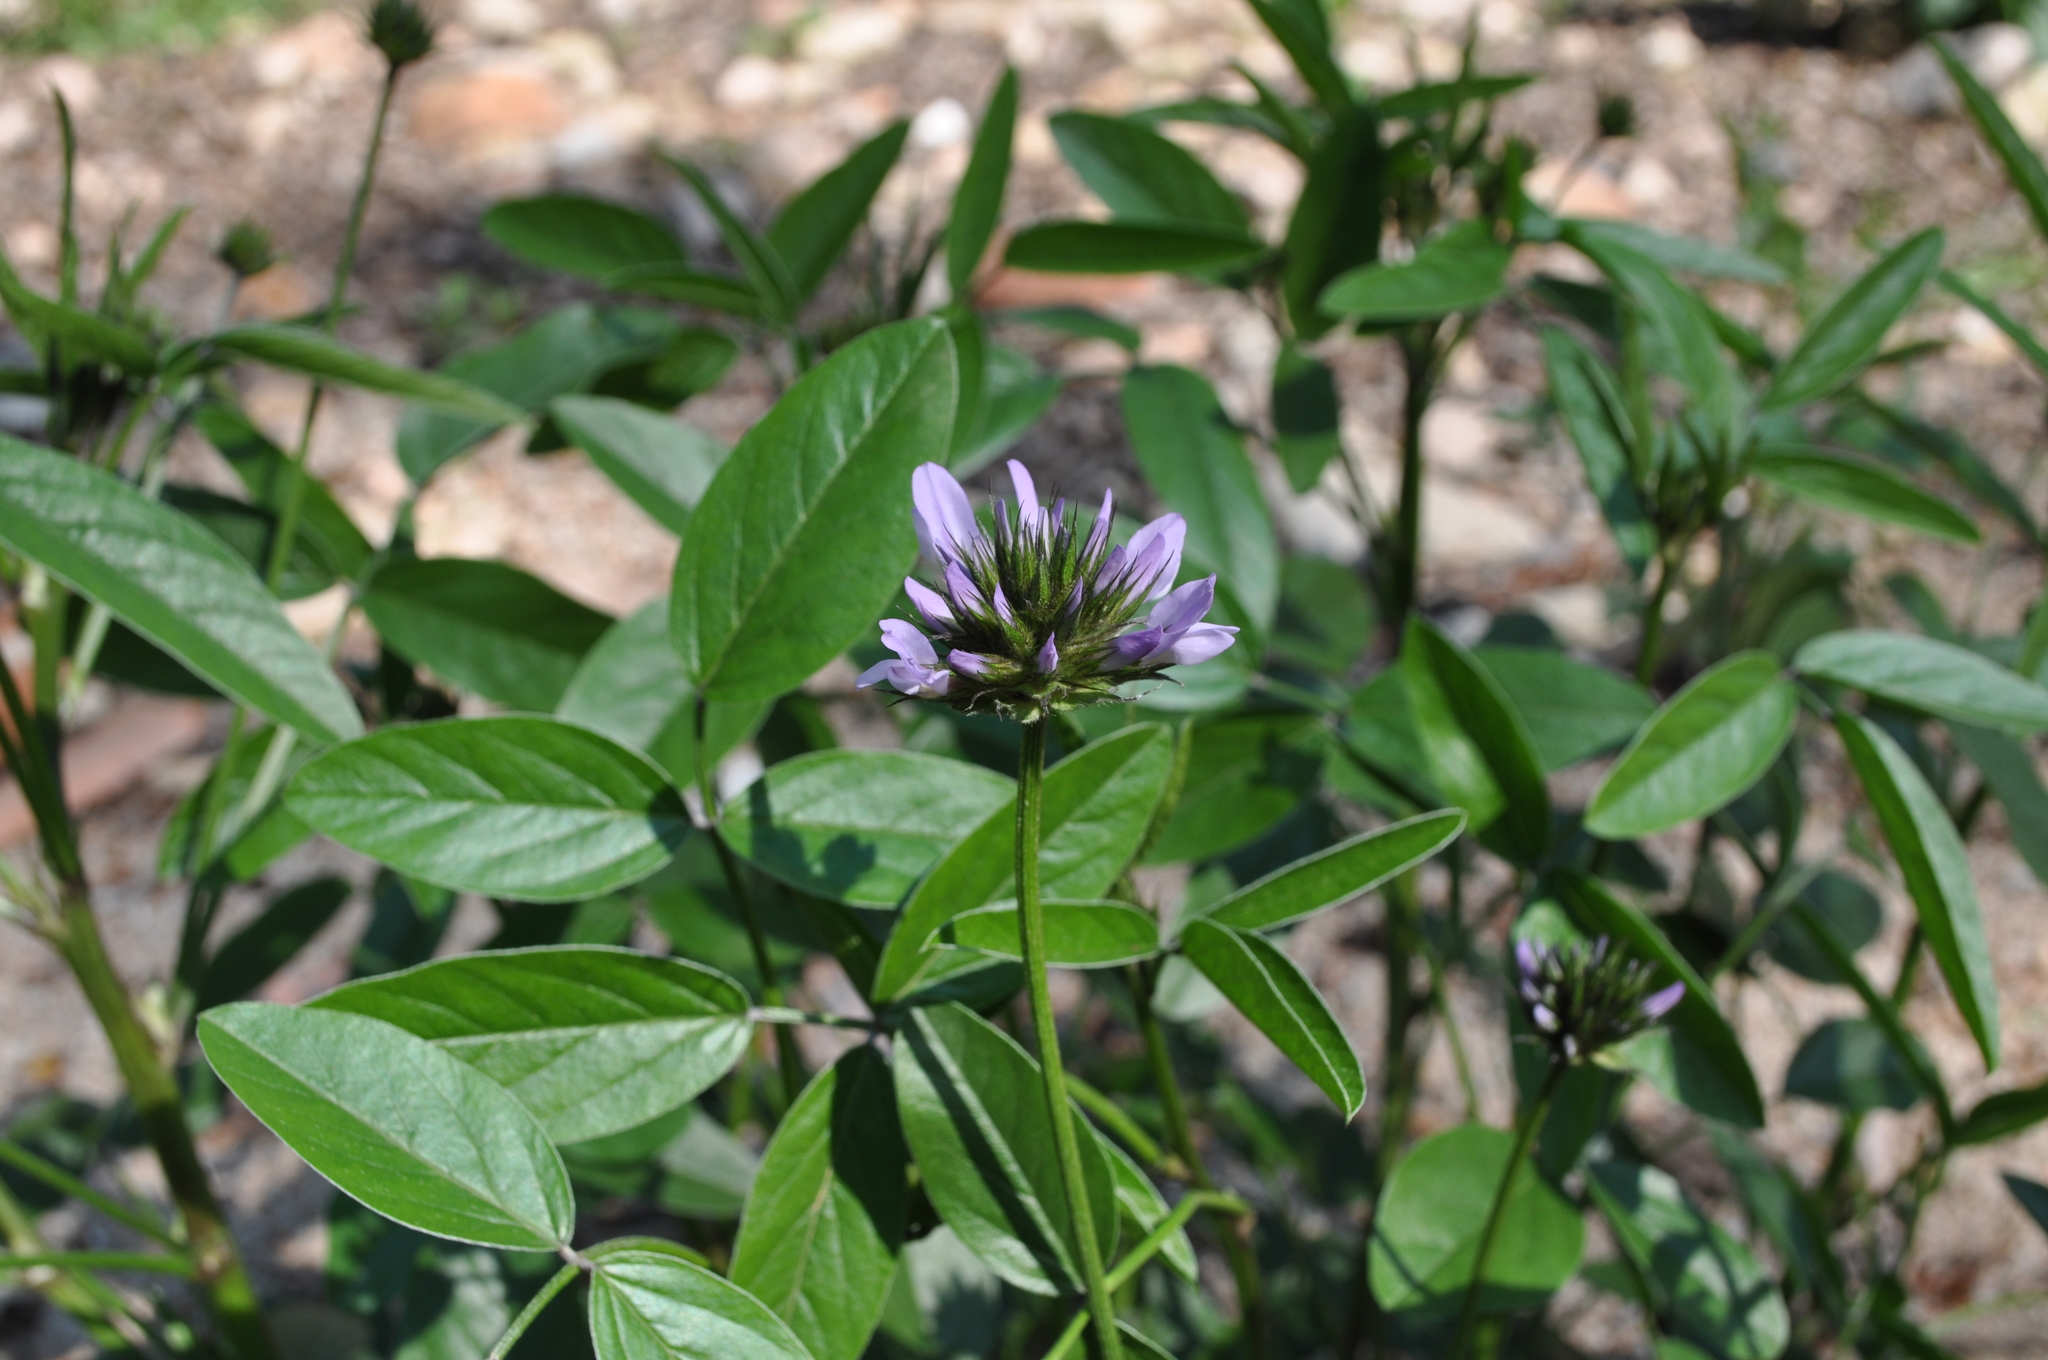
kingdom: Plantae
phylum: Tracheophyta
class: Magnoliopsida
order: Fabales
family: Fabaceae
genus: Bituminaria
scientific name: Bituminaria bituminosa
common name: Arabian pea
